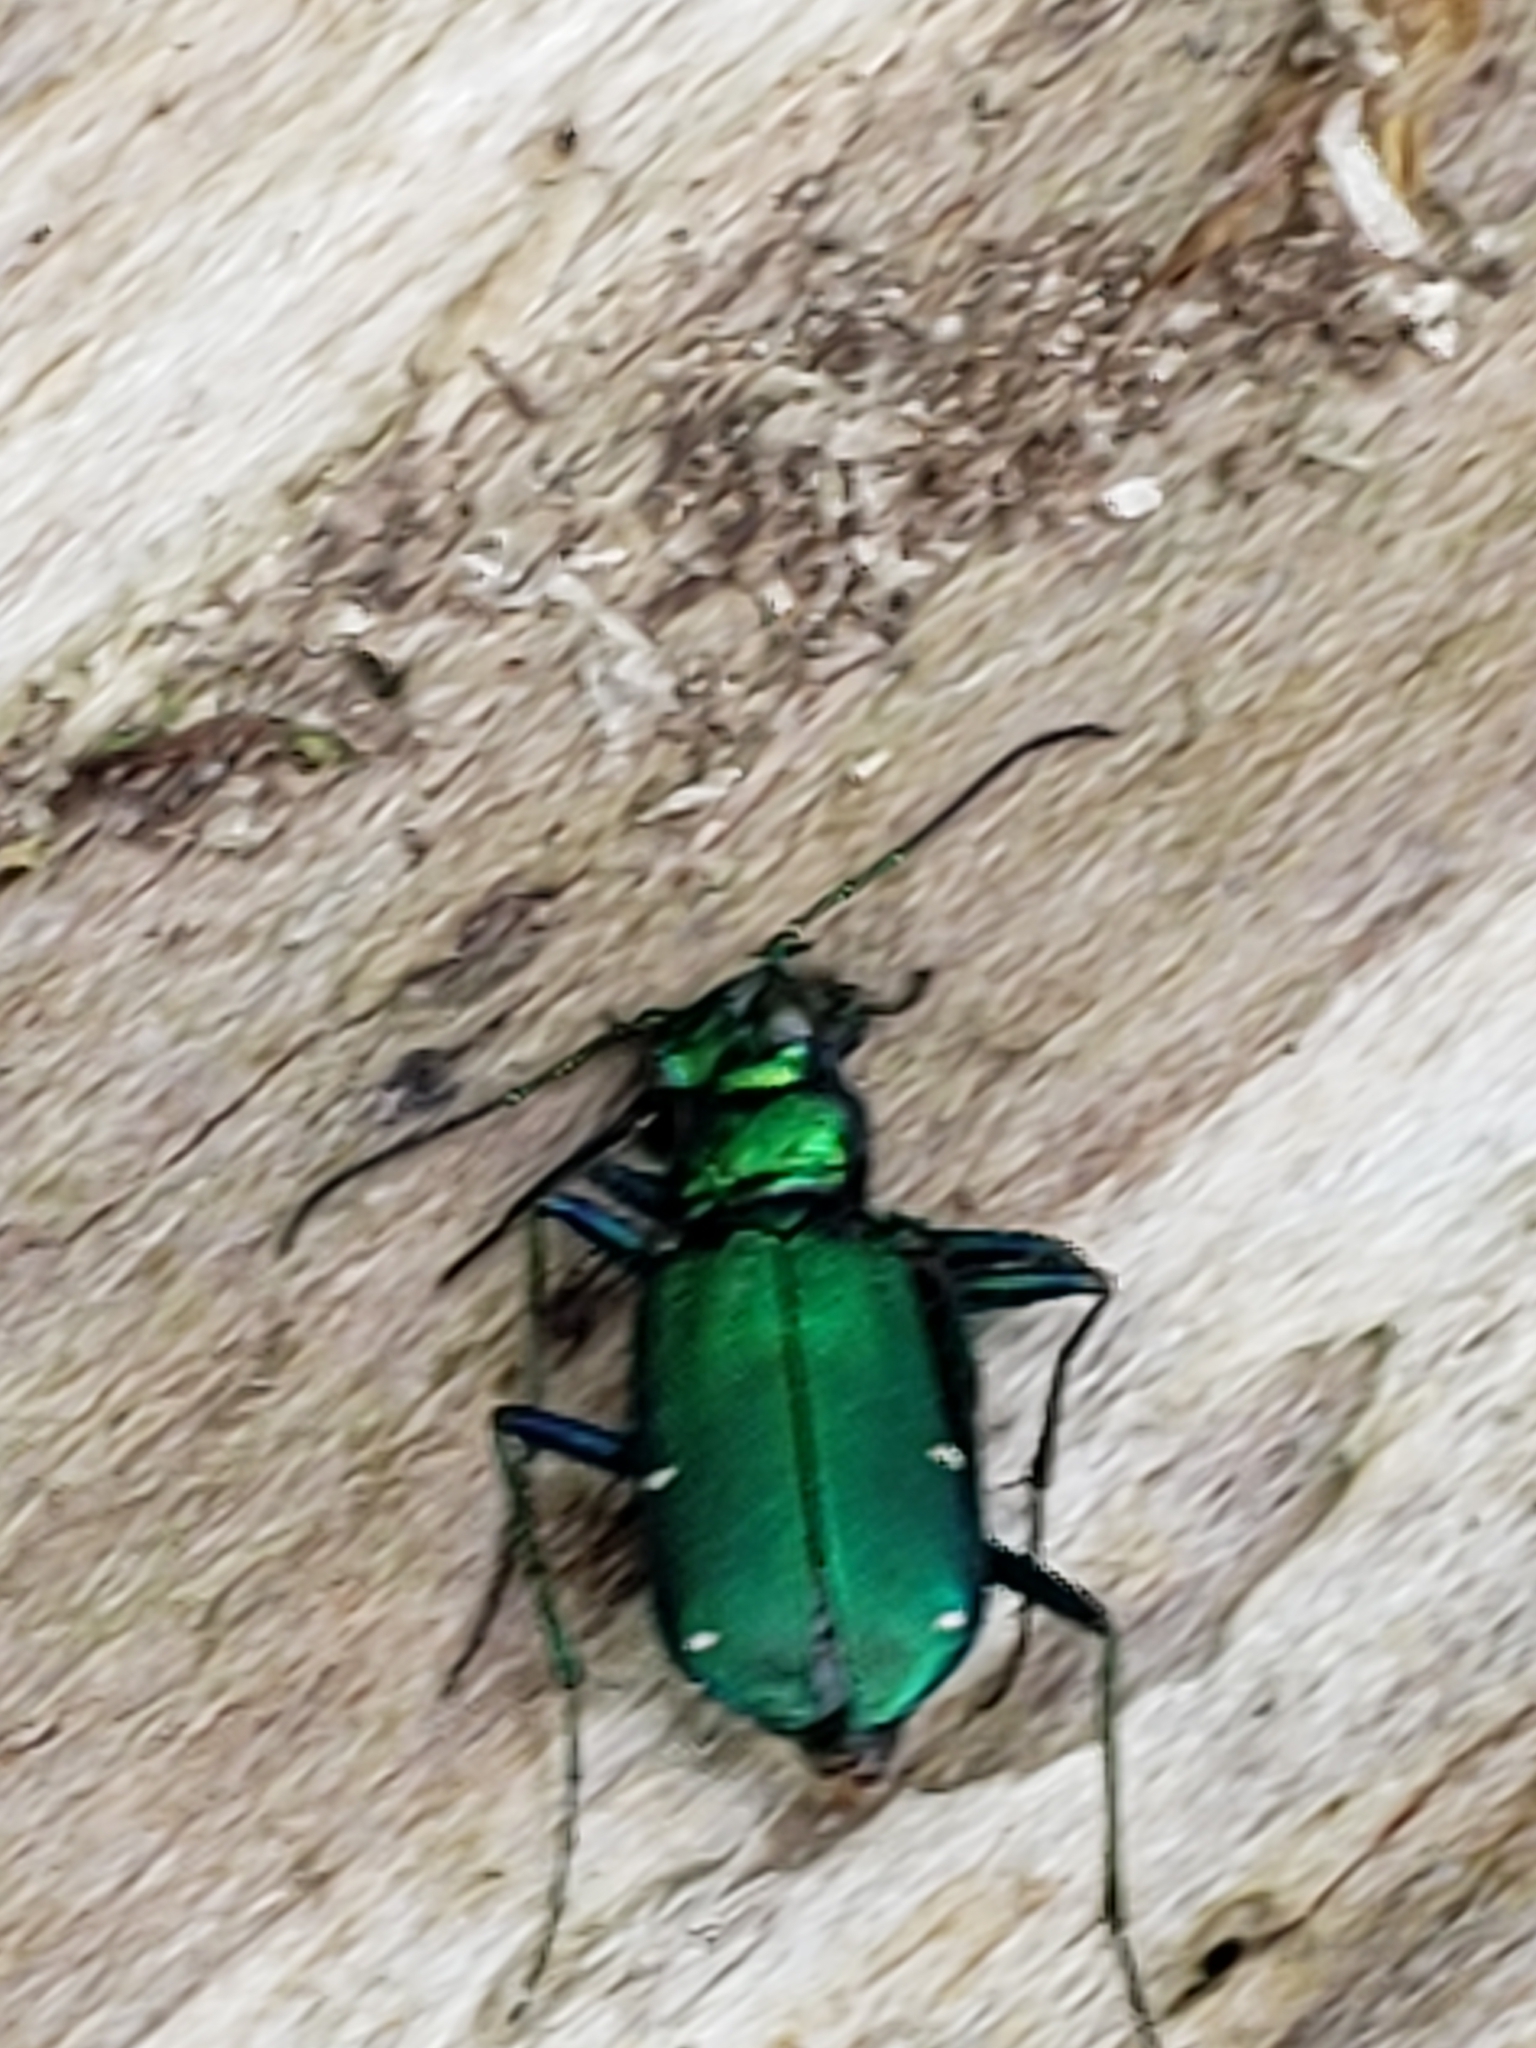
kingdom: Animalia
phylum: Arthropoda
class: Insecta
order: Coleoptera
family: Carabidae
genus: Cicindela
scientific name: Cicindela sexguttata
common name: Six-spotted tiger beetle
